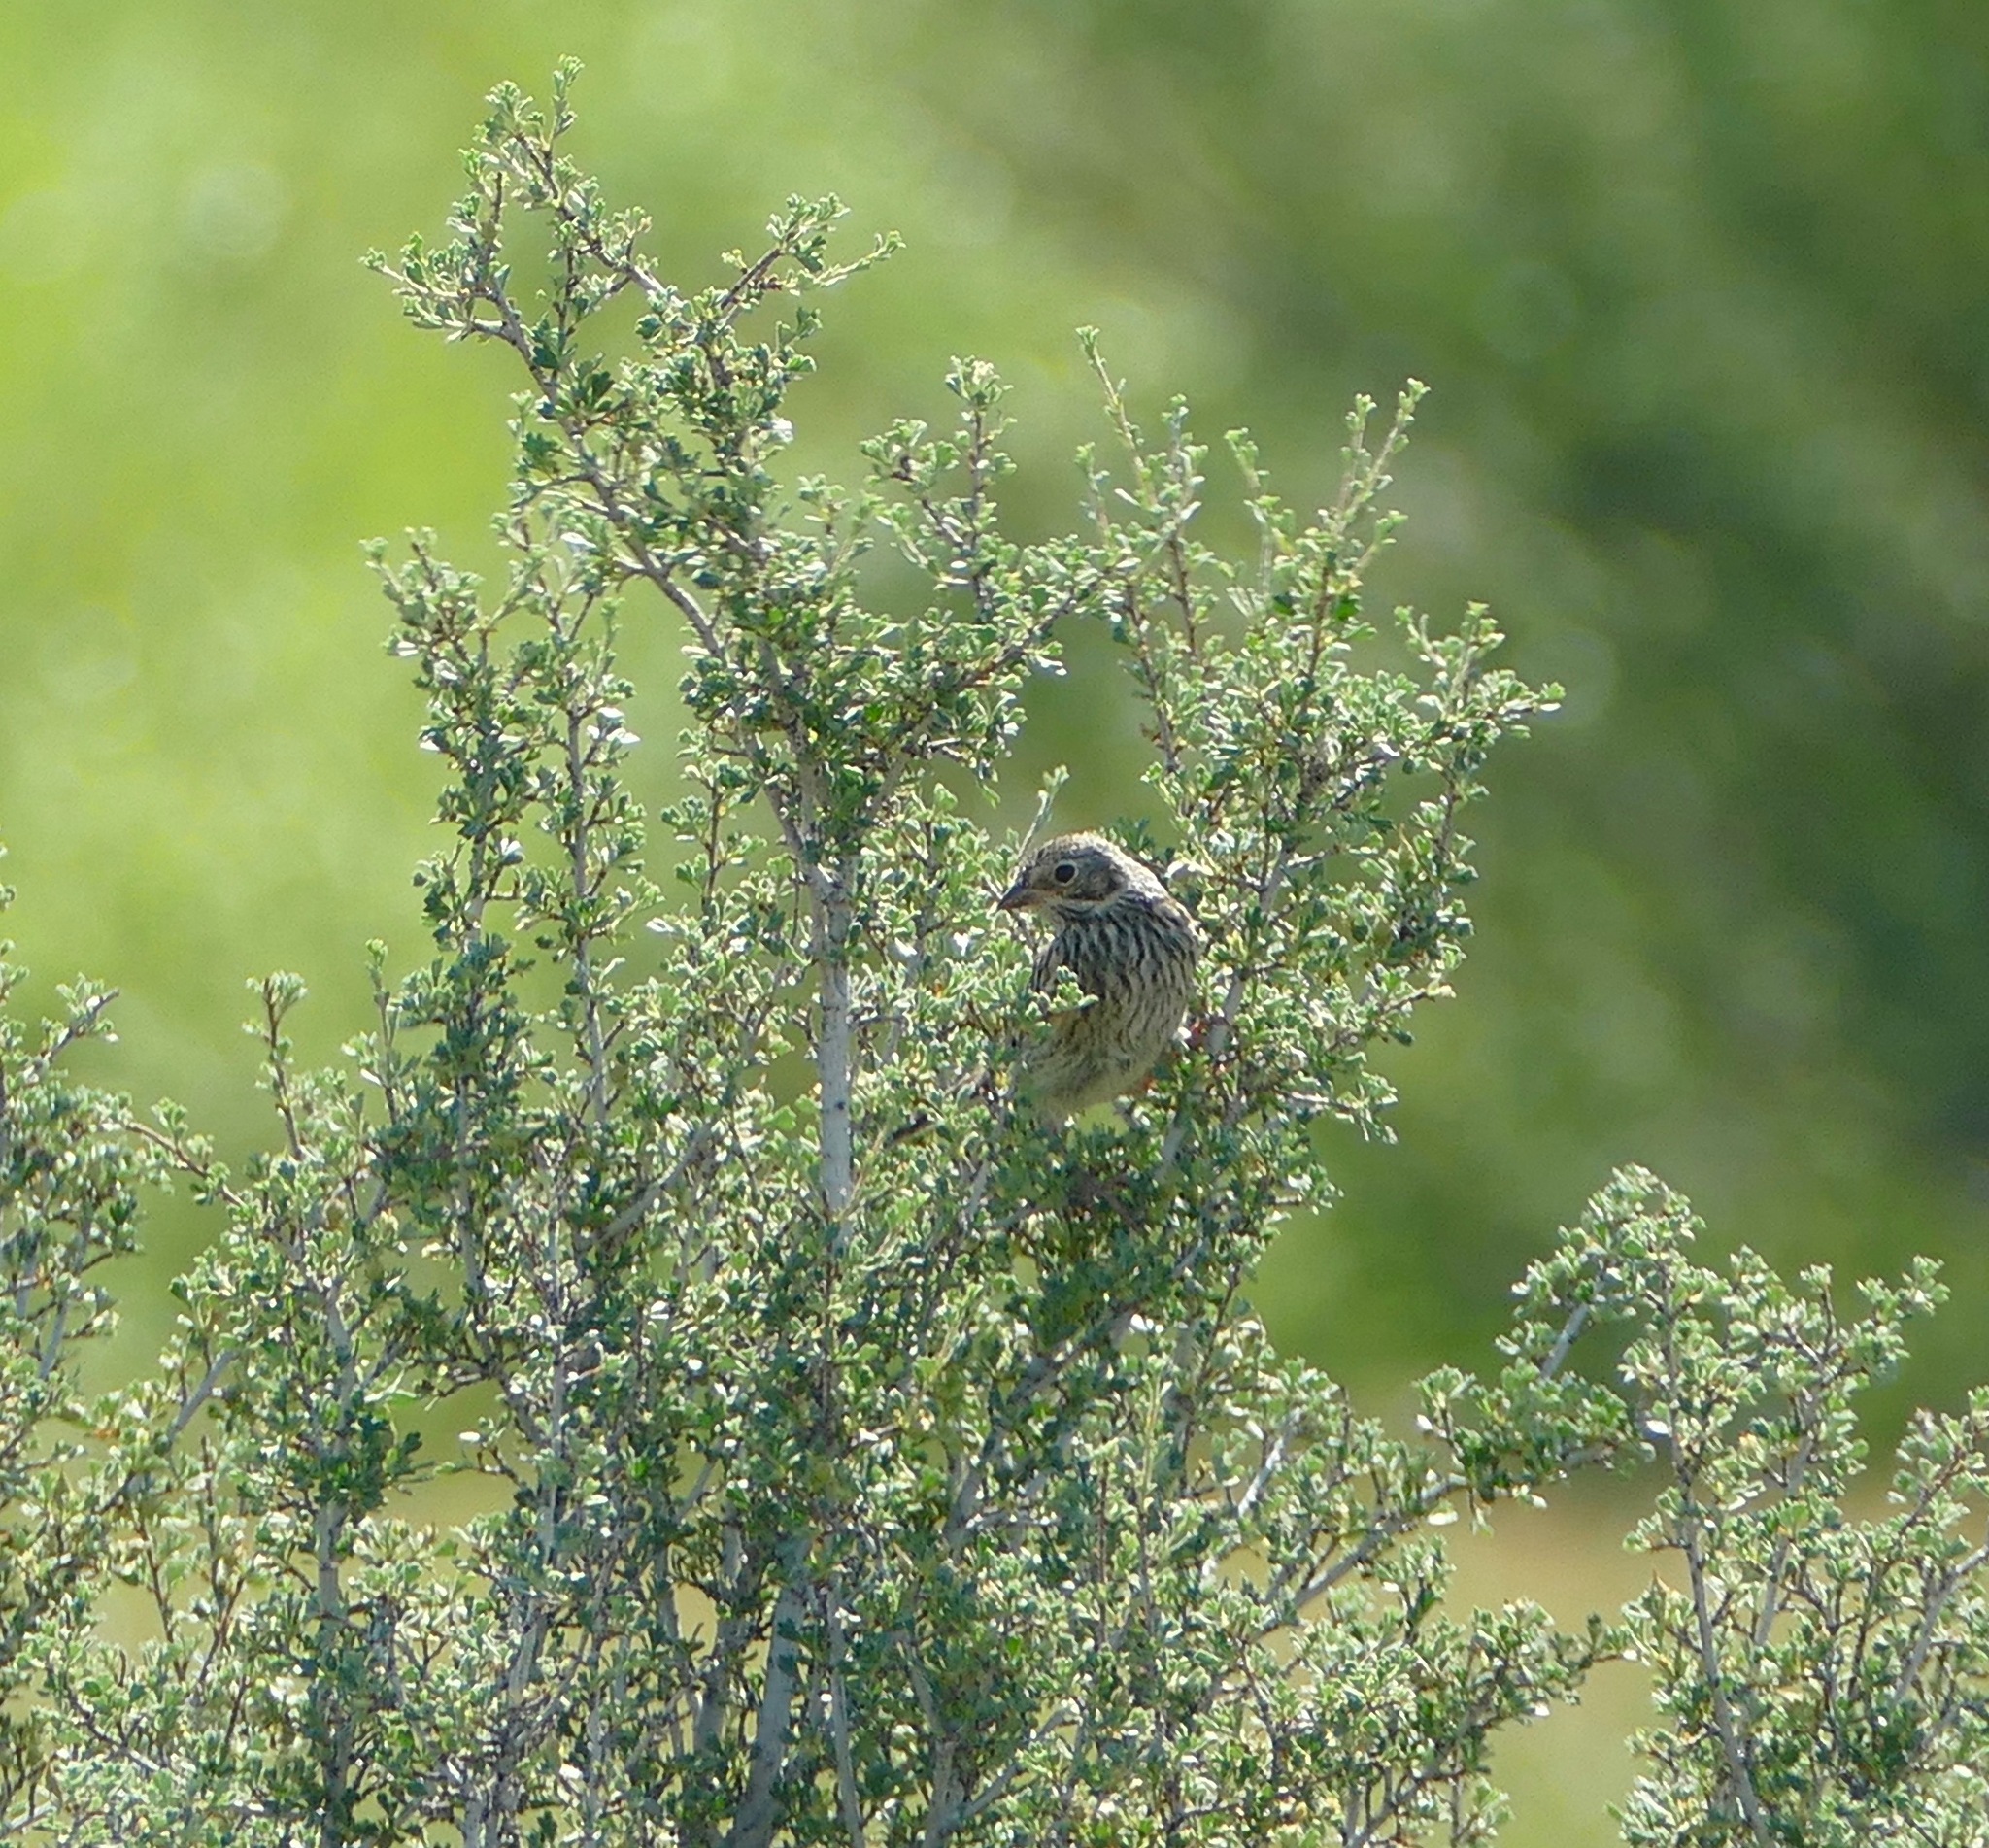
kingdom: Animalia
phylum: Chordata
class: Aves
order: Passeriformes
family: Passerellidae
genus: Pooecetes
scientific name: Pooecetes gramineus
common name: Vesper sparrow
